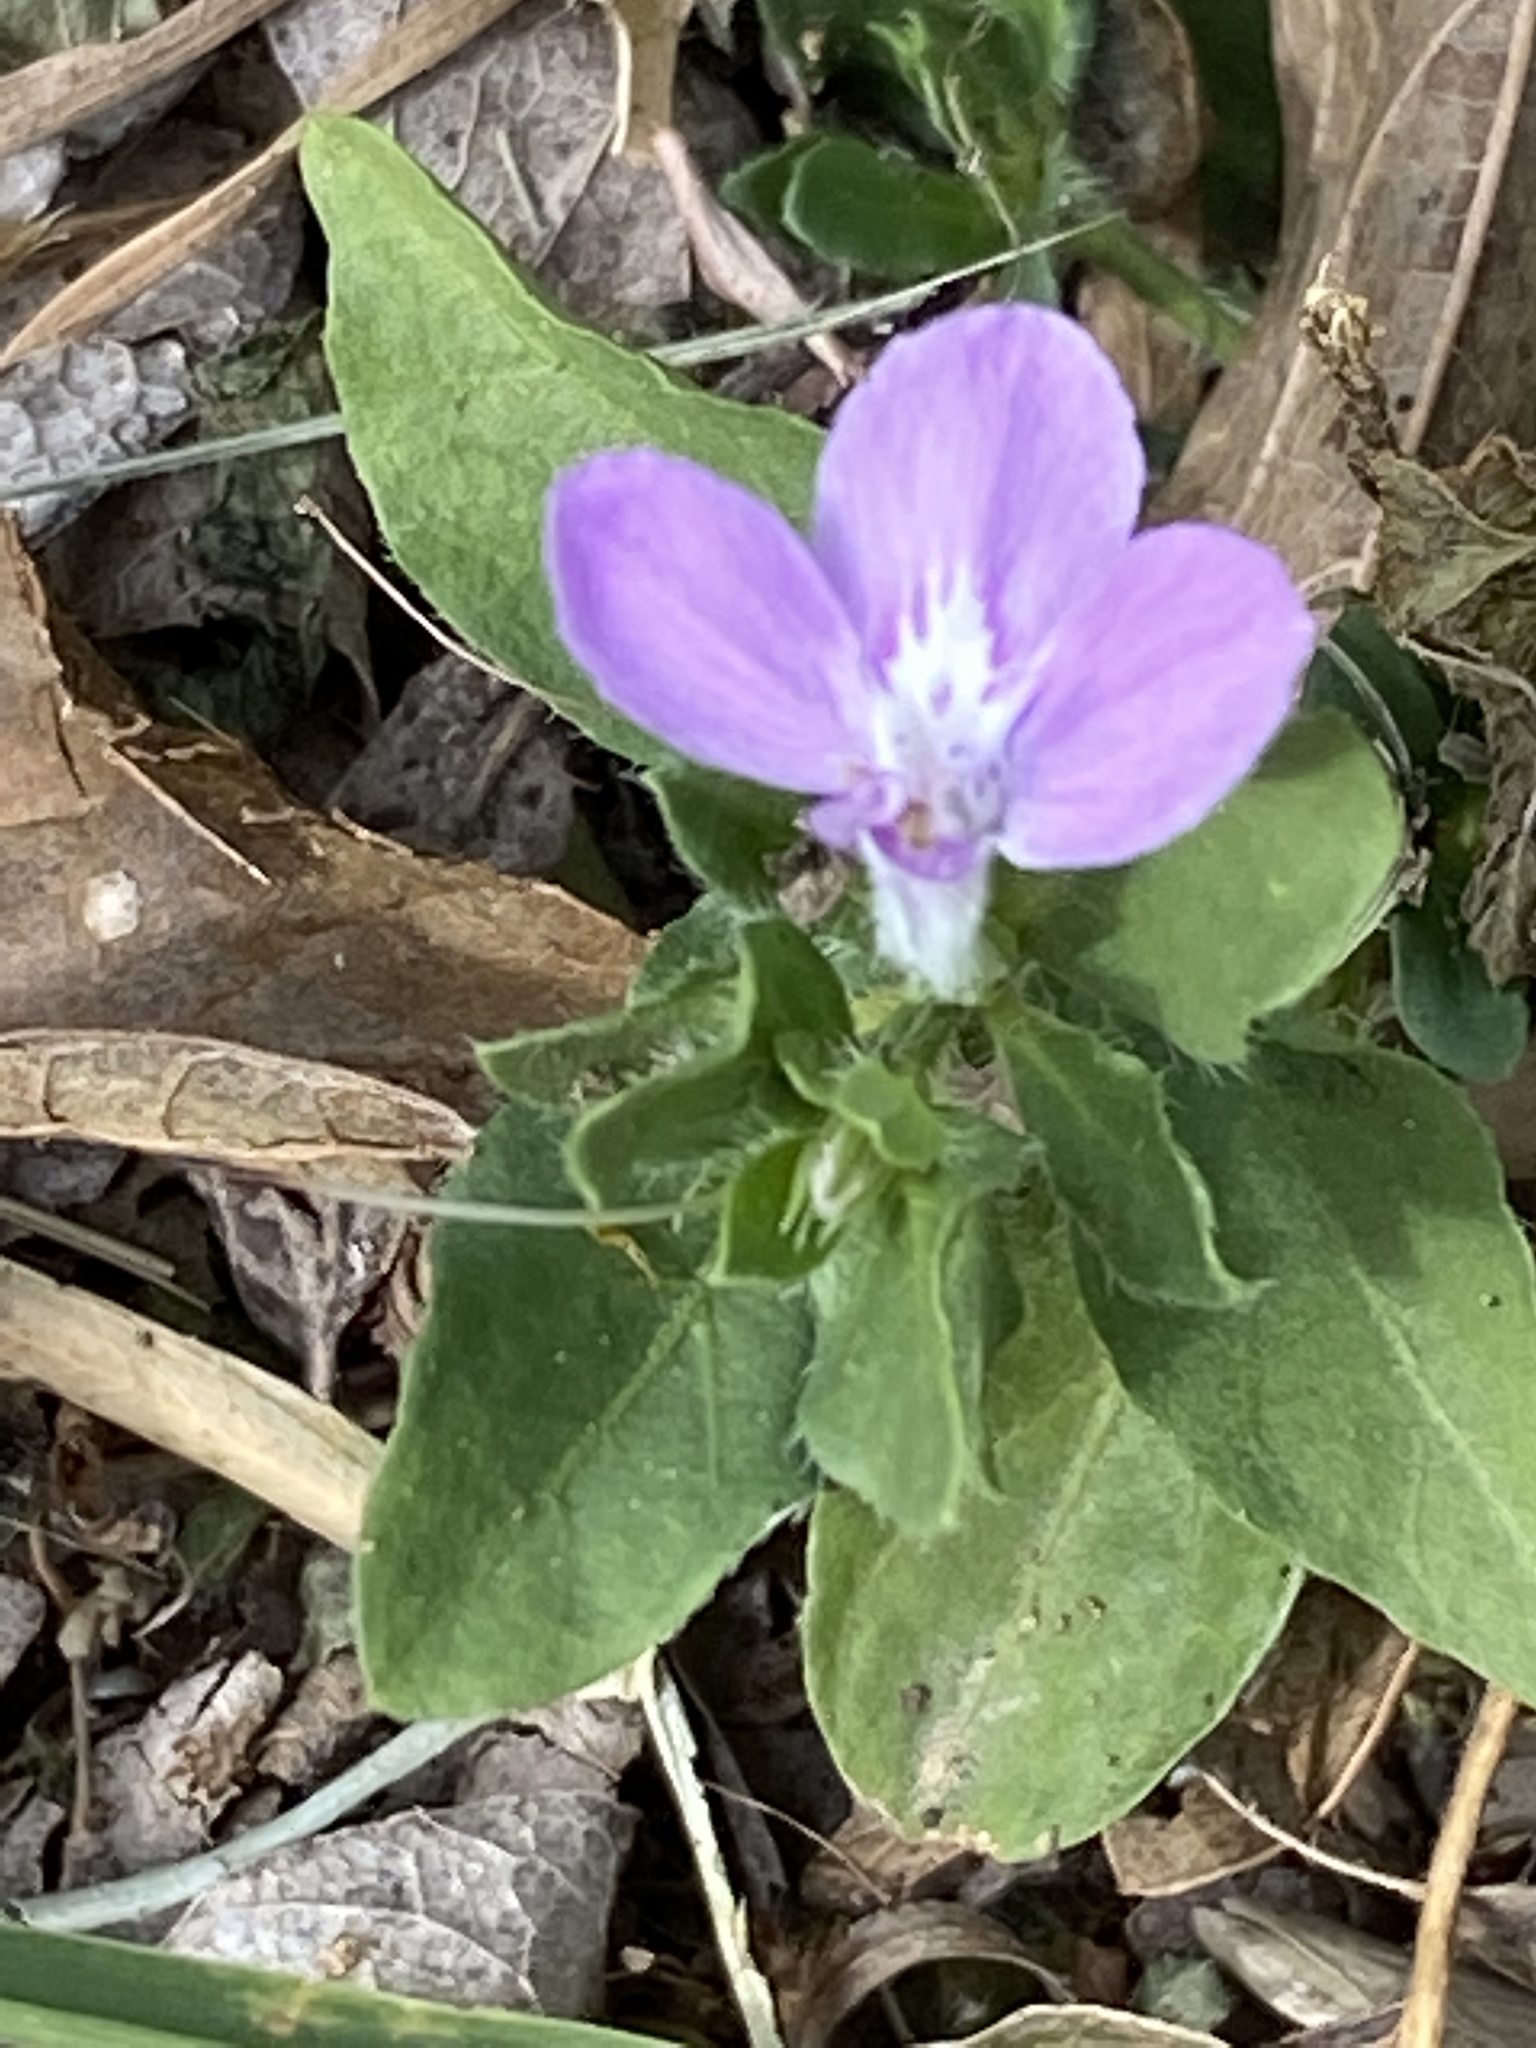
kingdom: Plantae
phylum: Tracheophyta
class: Magnoliopsida
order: Lamiales
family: Acanthaceae
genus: Justicia
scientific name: Justicia pilosella
